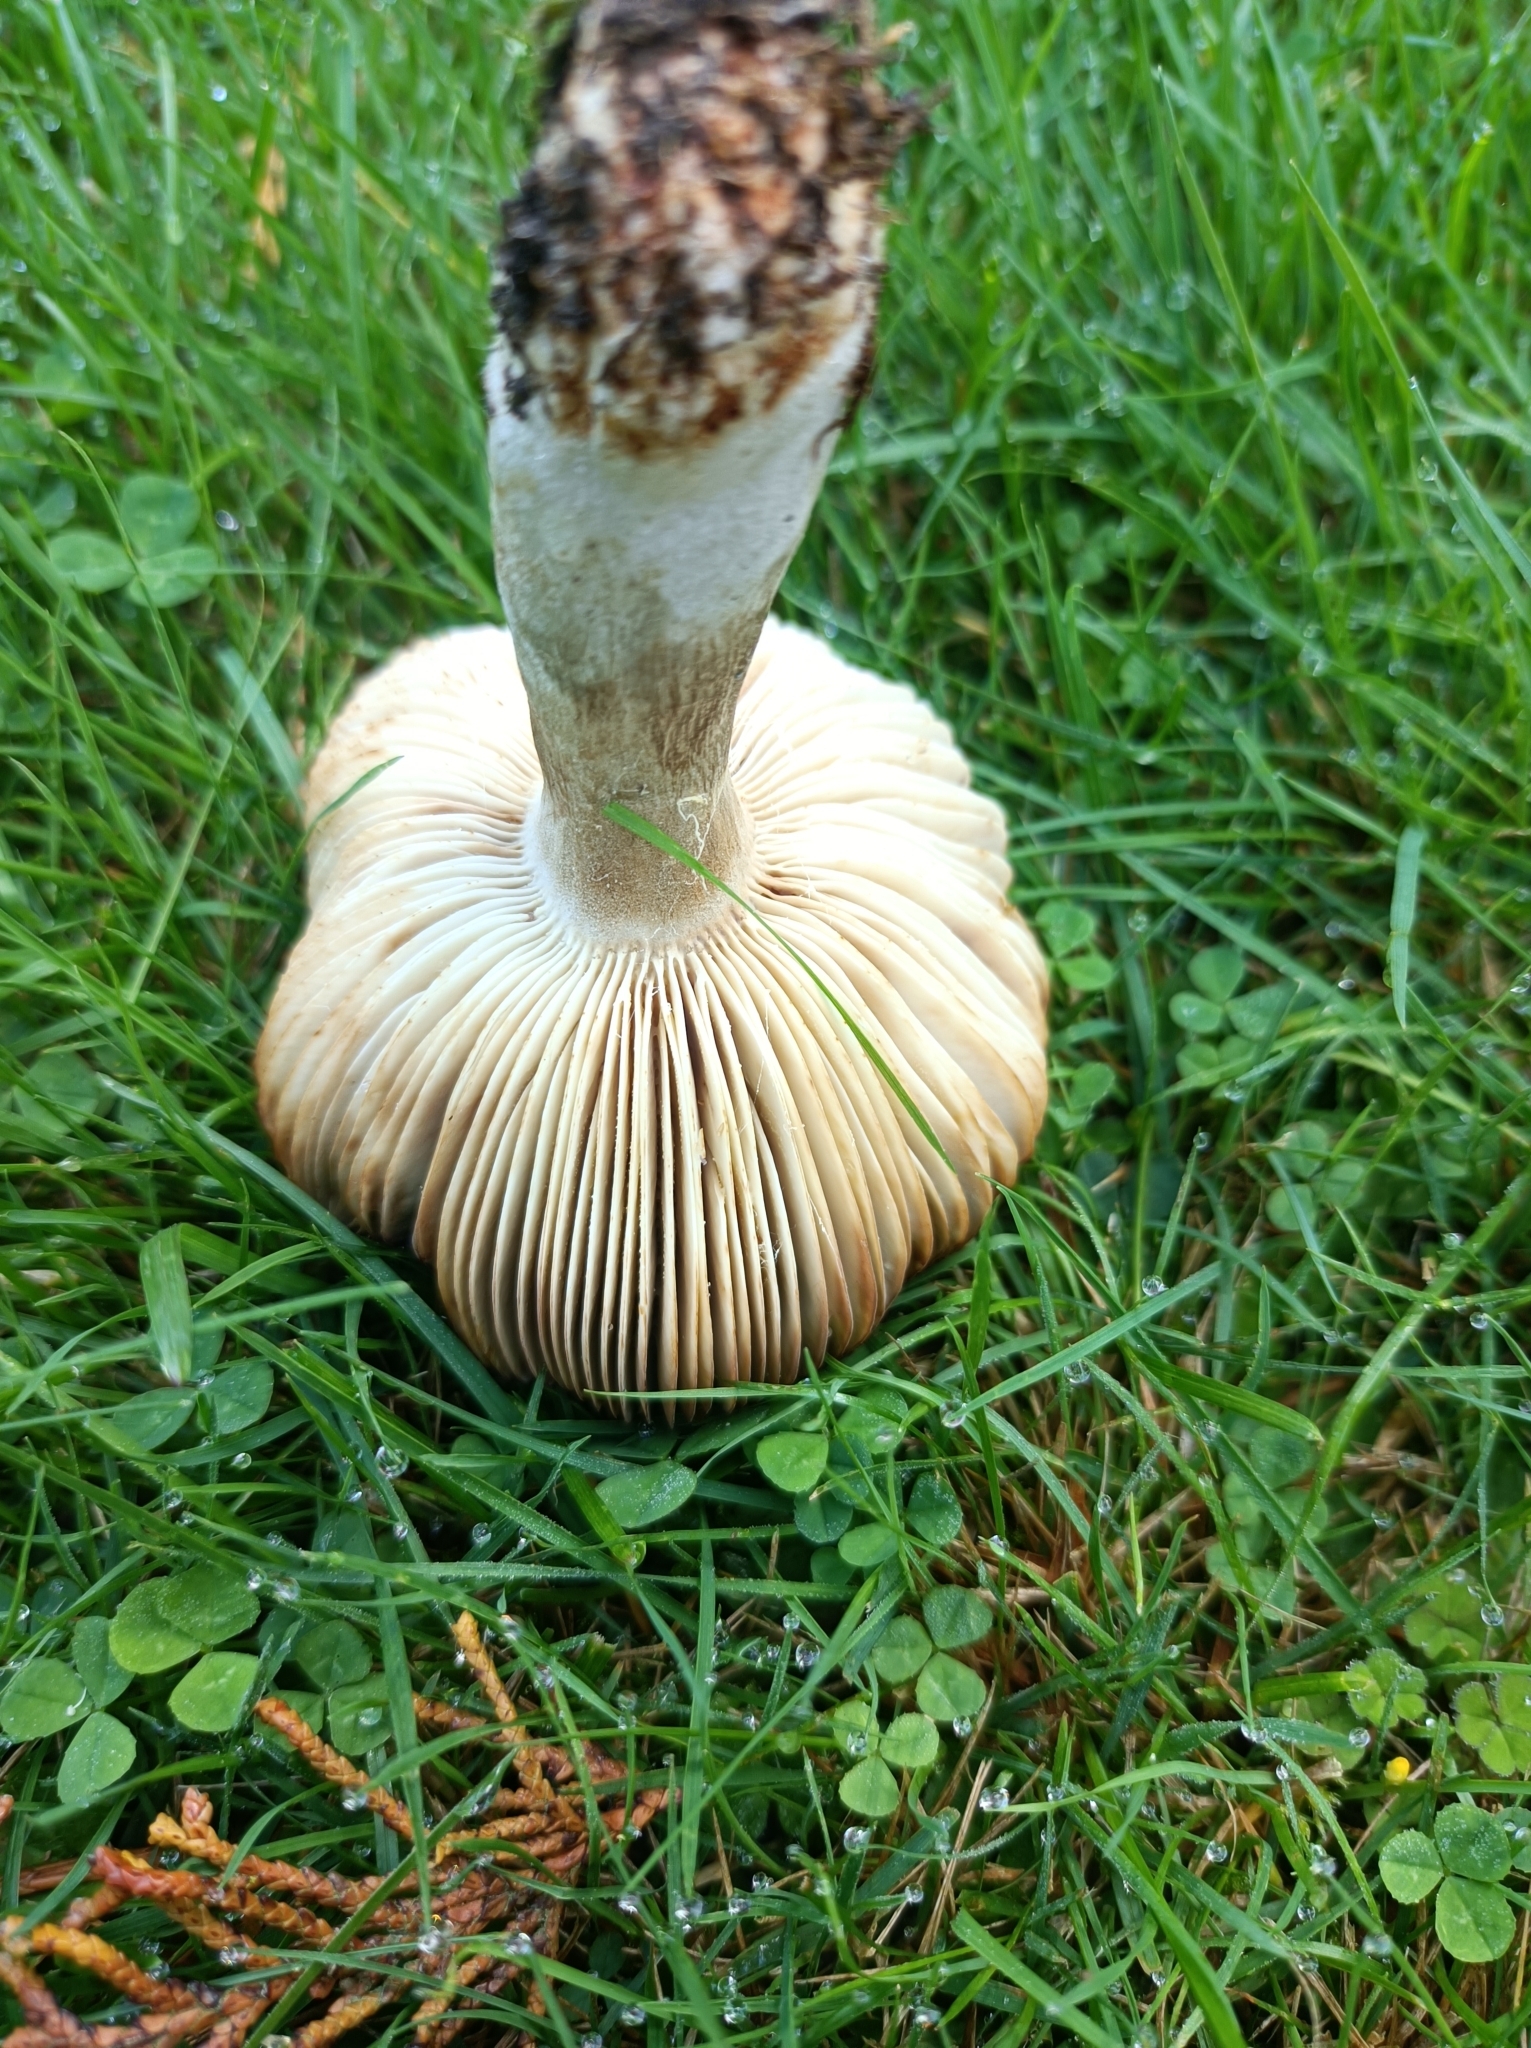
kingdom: Fungi
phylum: Basidiomycota
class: Agaricomycetes
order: Russulales
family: Russulaceae
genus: Russula
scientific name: Russula amoenolens
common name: Camembert brittlegill
